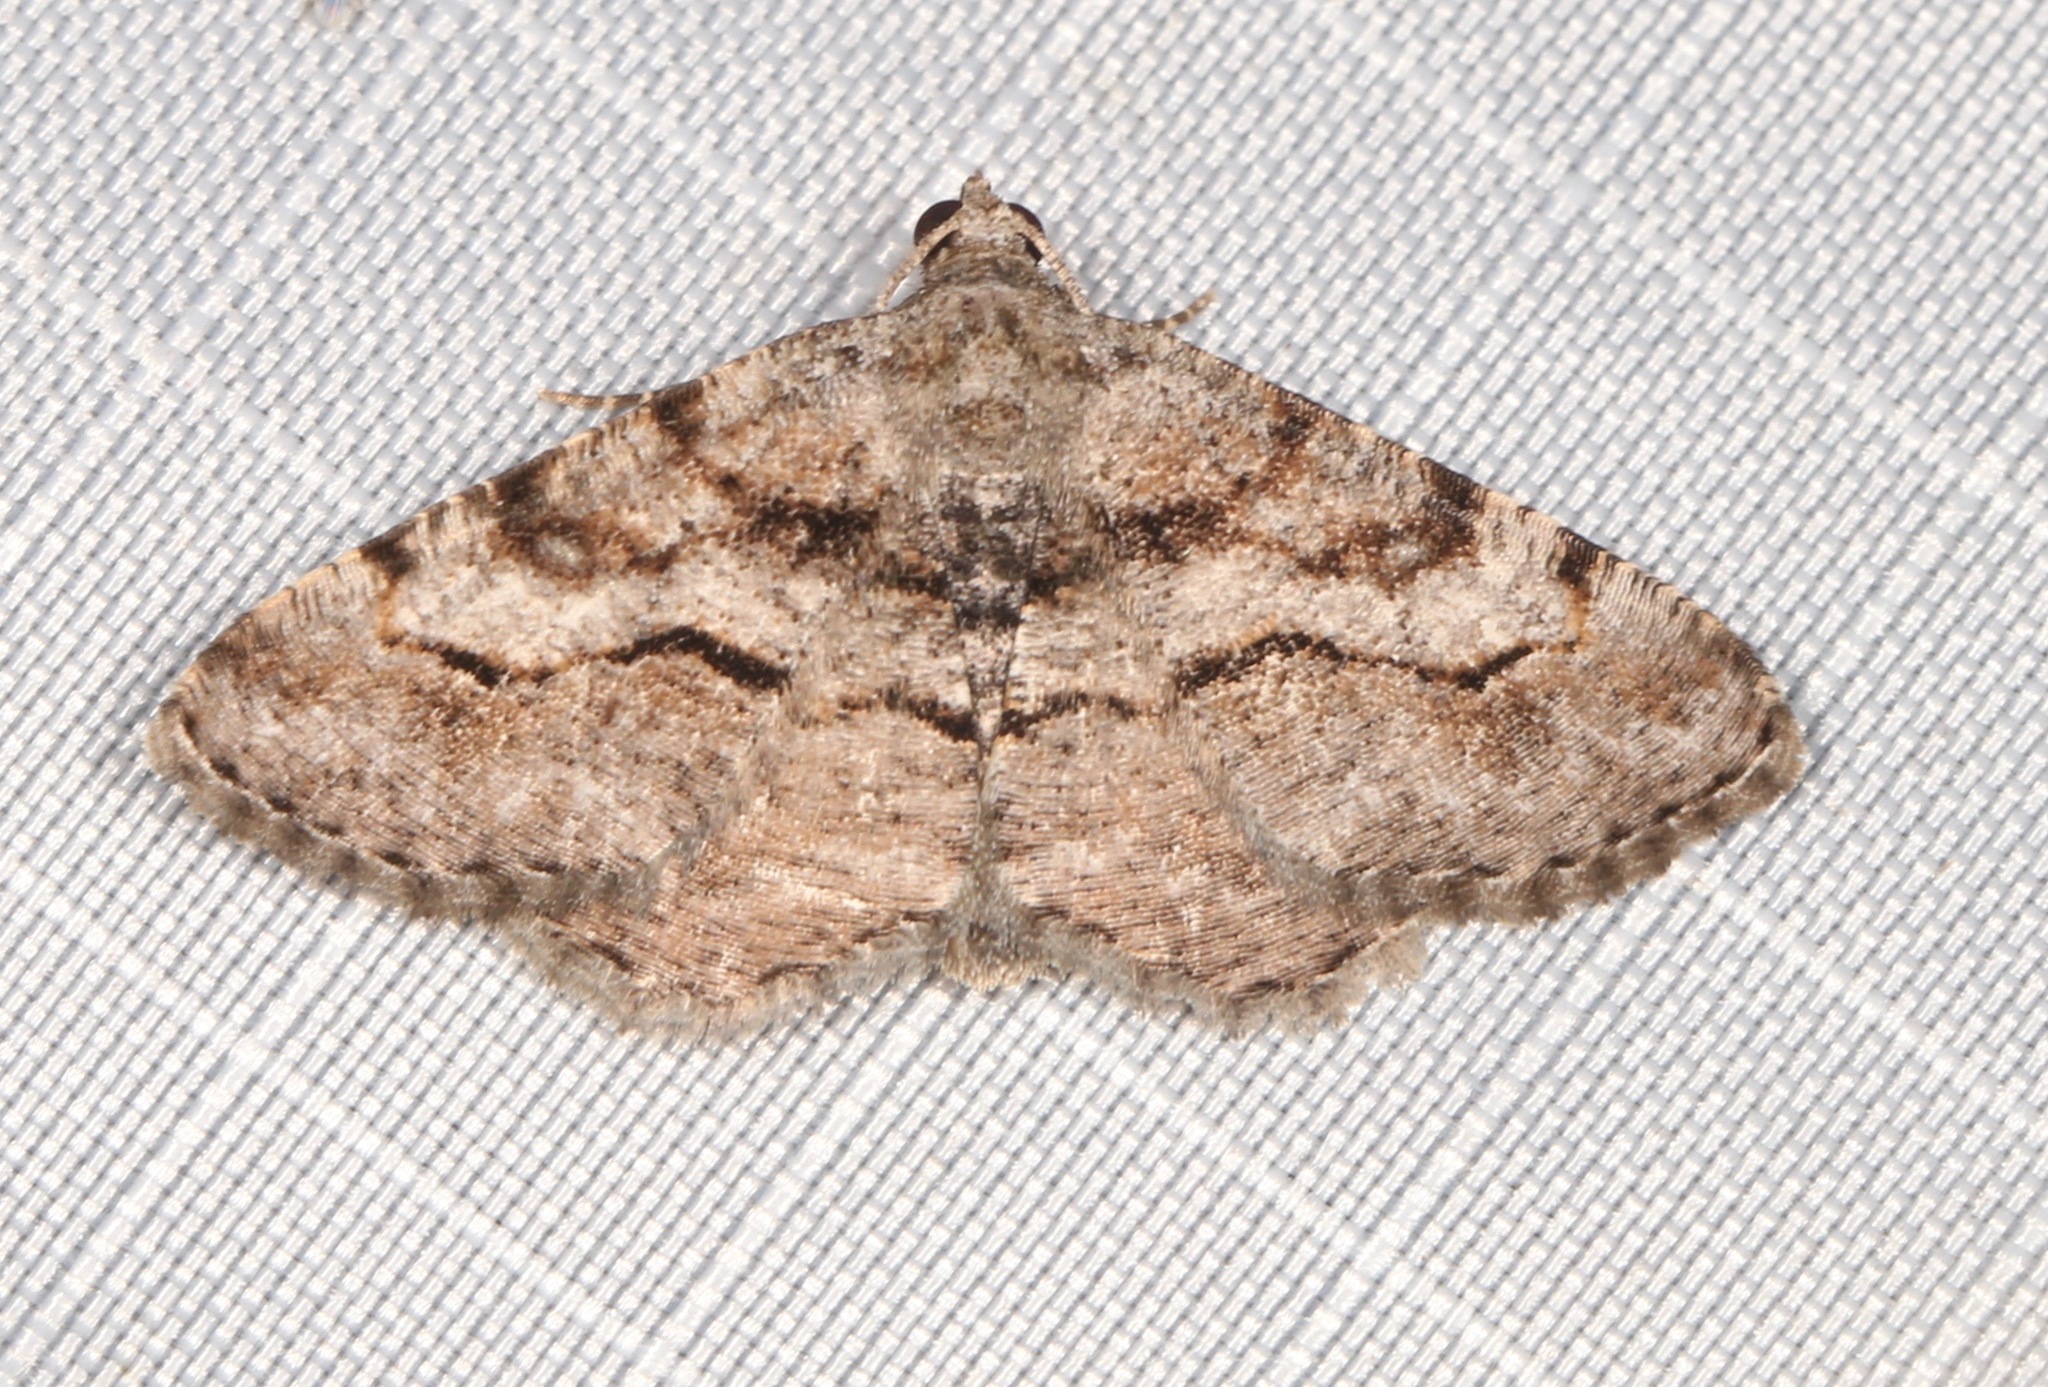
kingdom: Animalia
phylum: Arthropoda
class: Insecta
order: Lepidoptera
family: Geometridae
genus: Digrammia
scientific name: Digrammia gnophosaria
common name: Hollow-spotted angle
